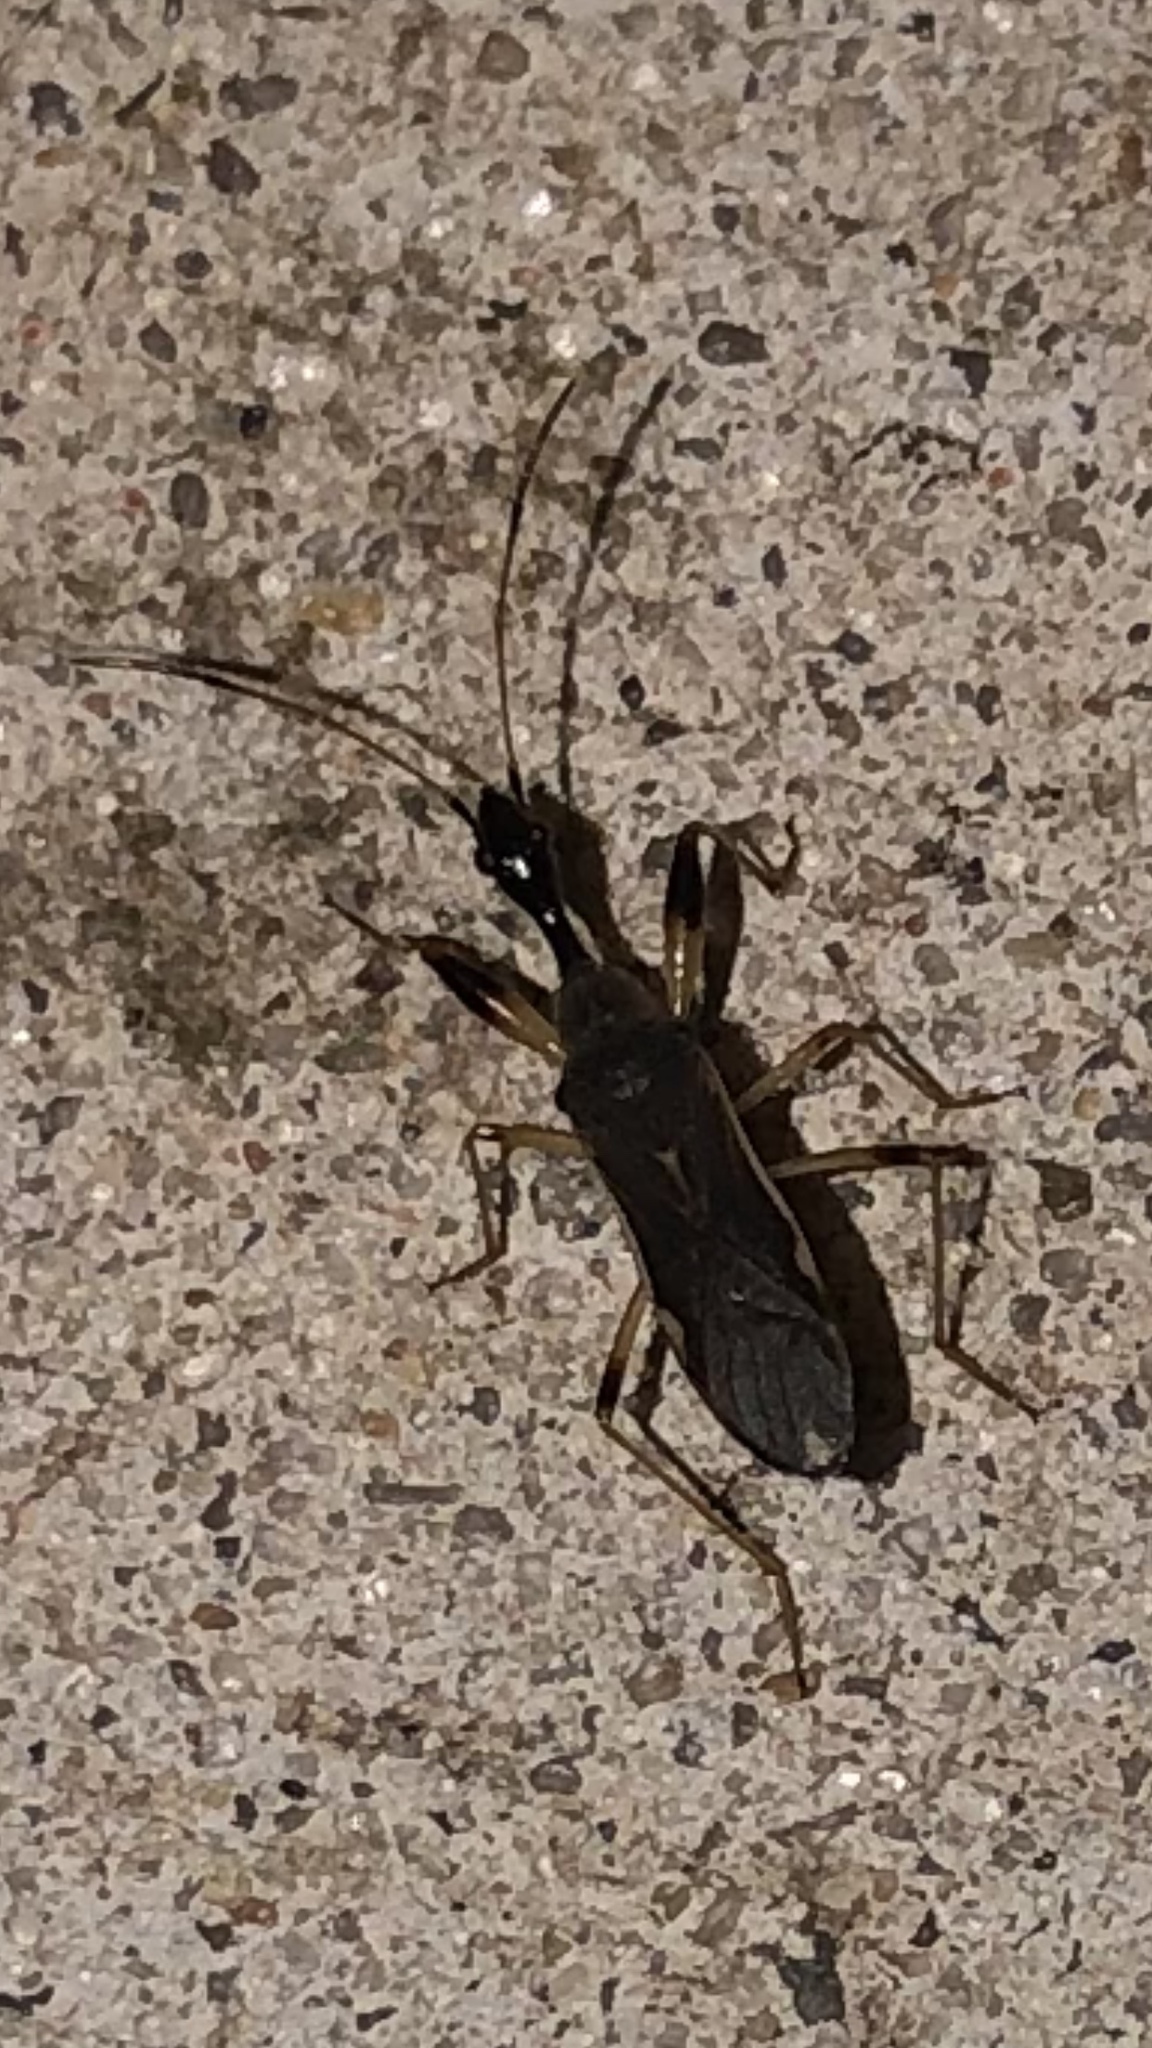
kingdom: Animalia
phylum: Arthropoda
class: Insecta
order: Hemiptera
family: Rhyparochromidae
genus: Myodocha
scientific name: Myodocha serripes
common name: Long-necked seed bug
